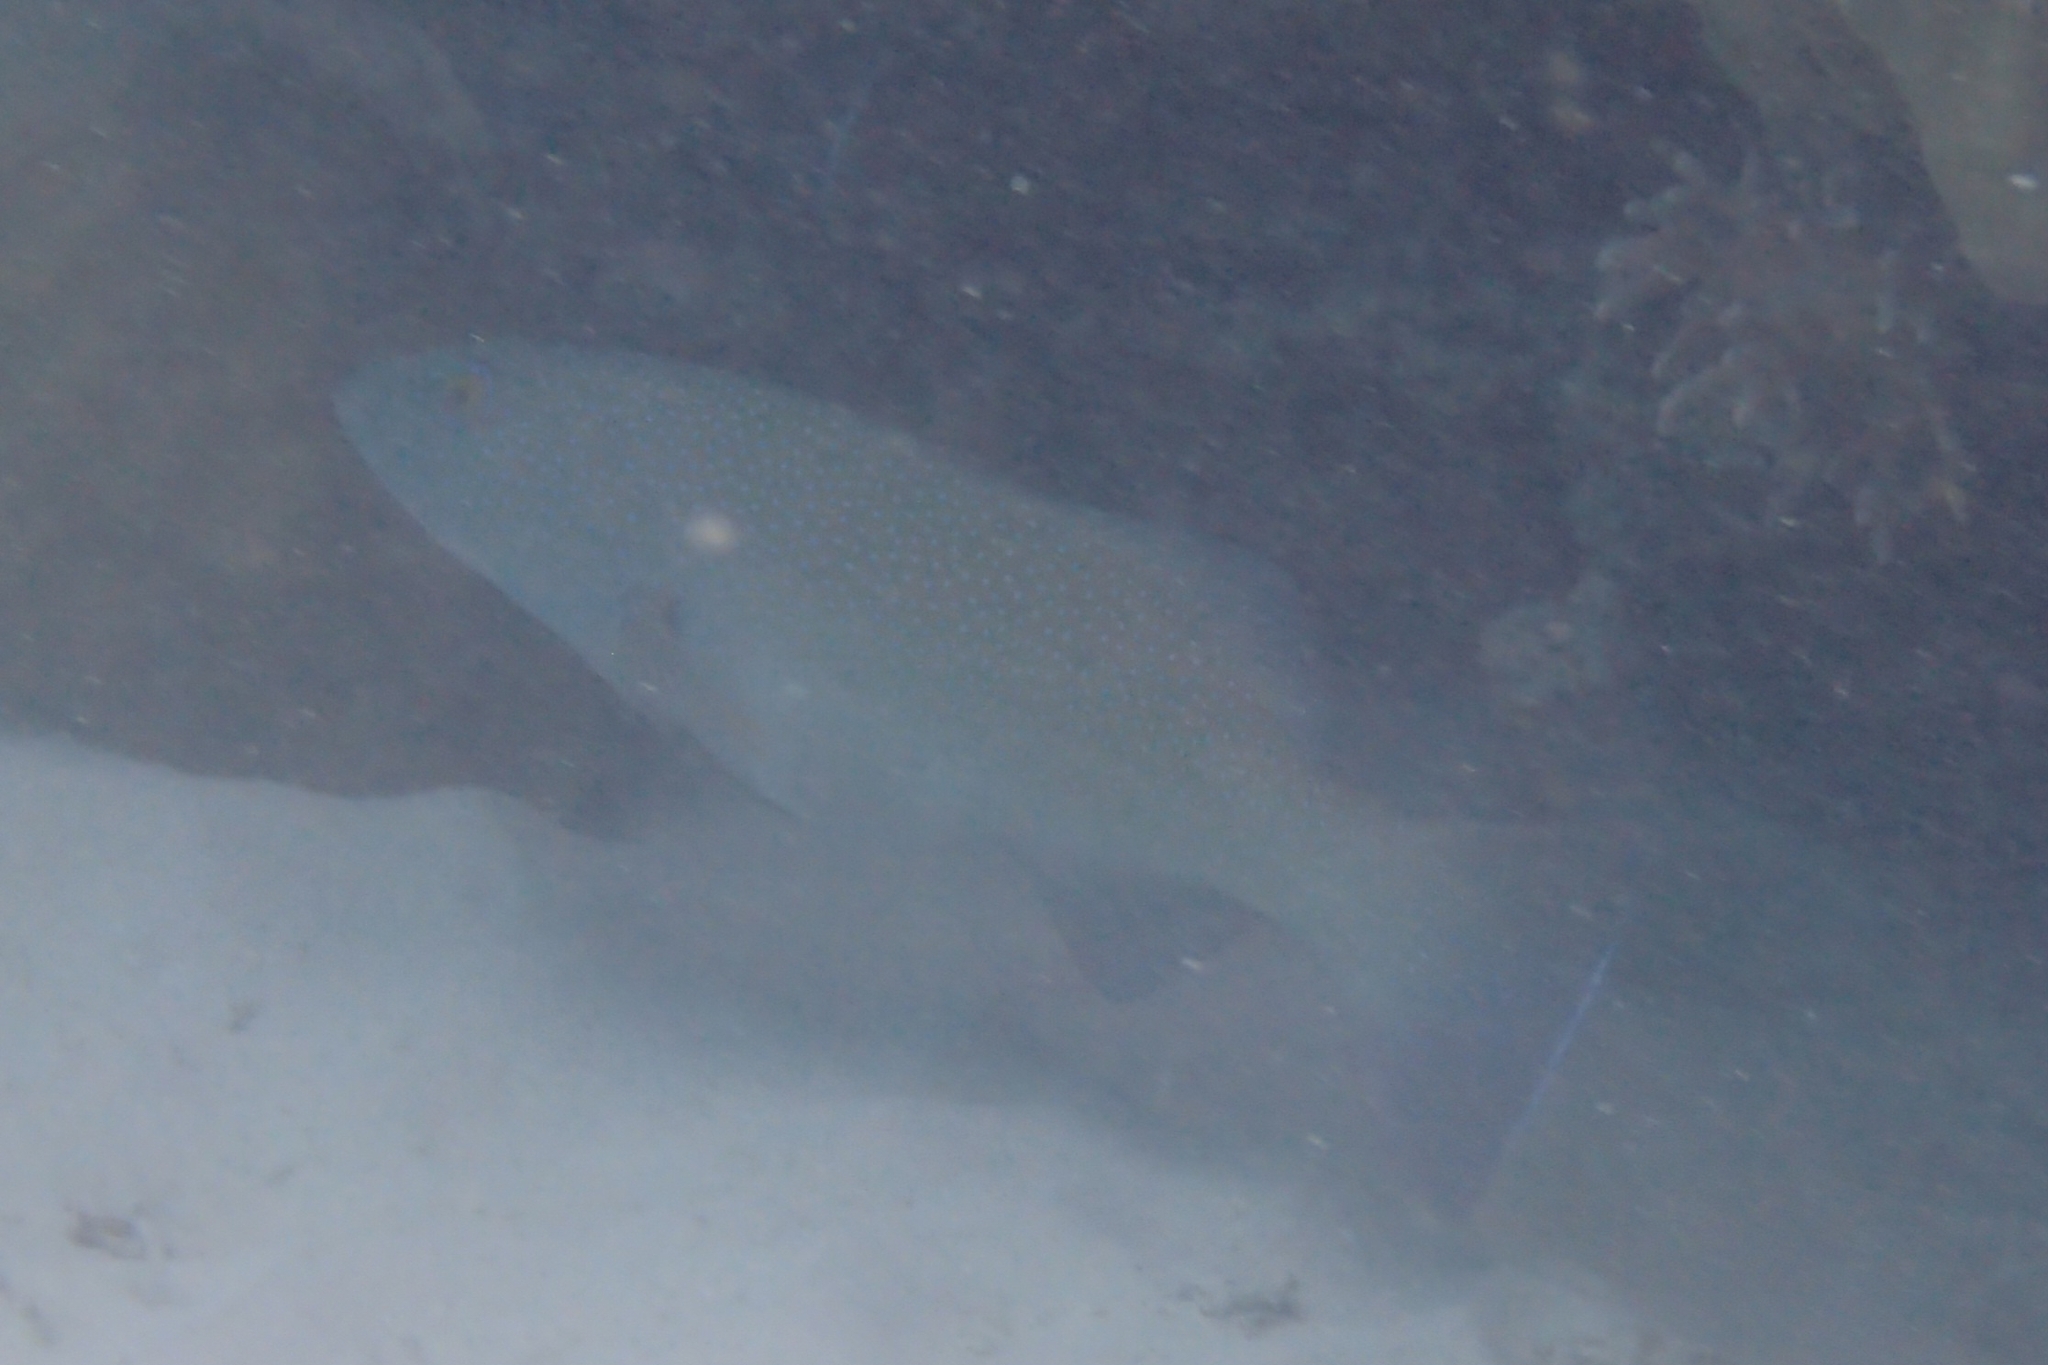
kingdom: Animalia
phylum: Chordata
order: Perciformes
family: Serranidae
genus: Plectropomus
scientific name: Plectropomus leopardus
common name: Coral trout
